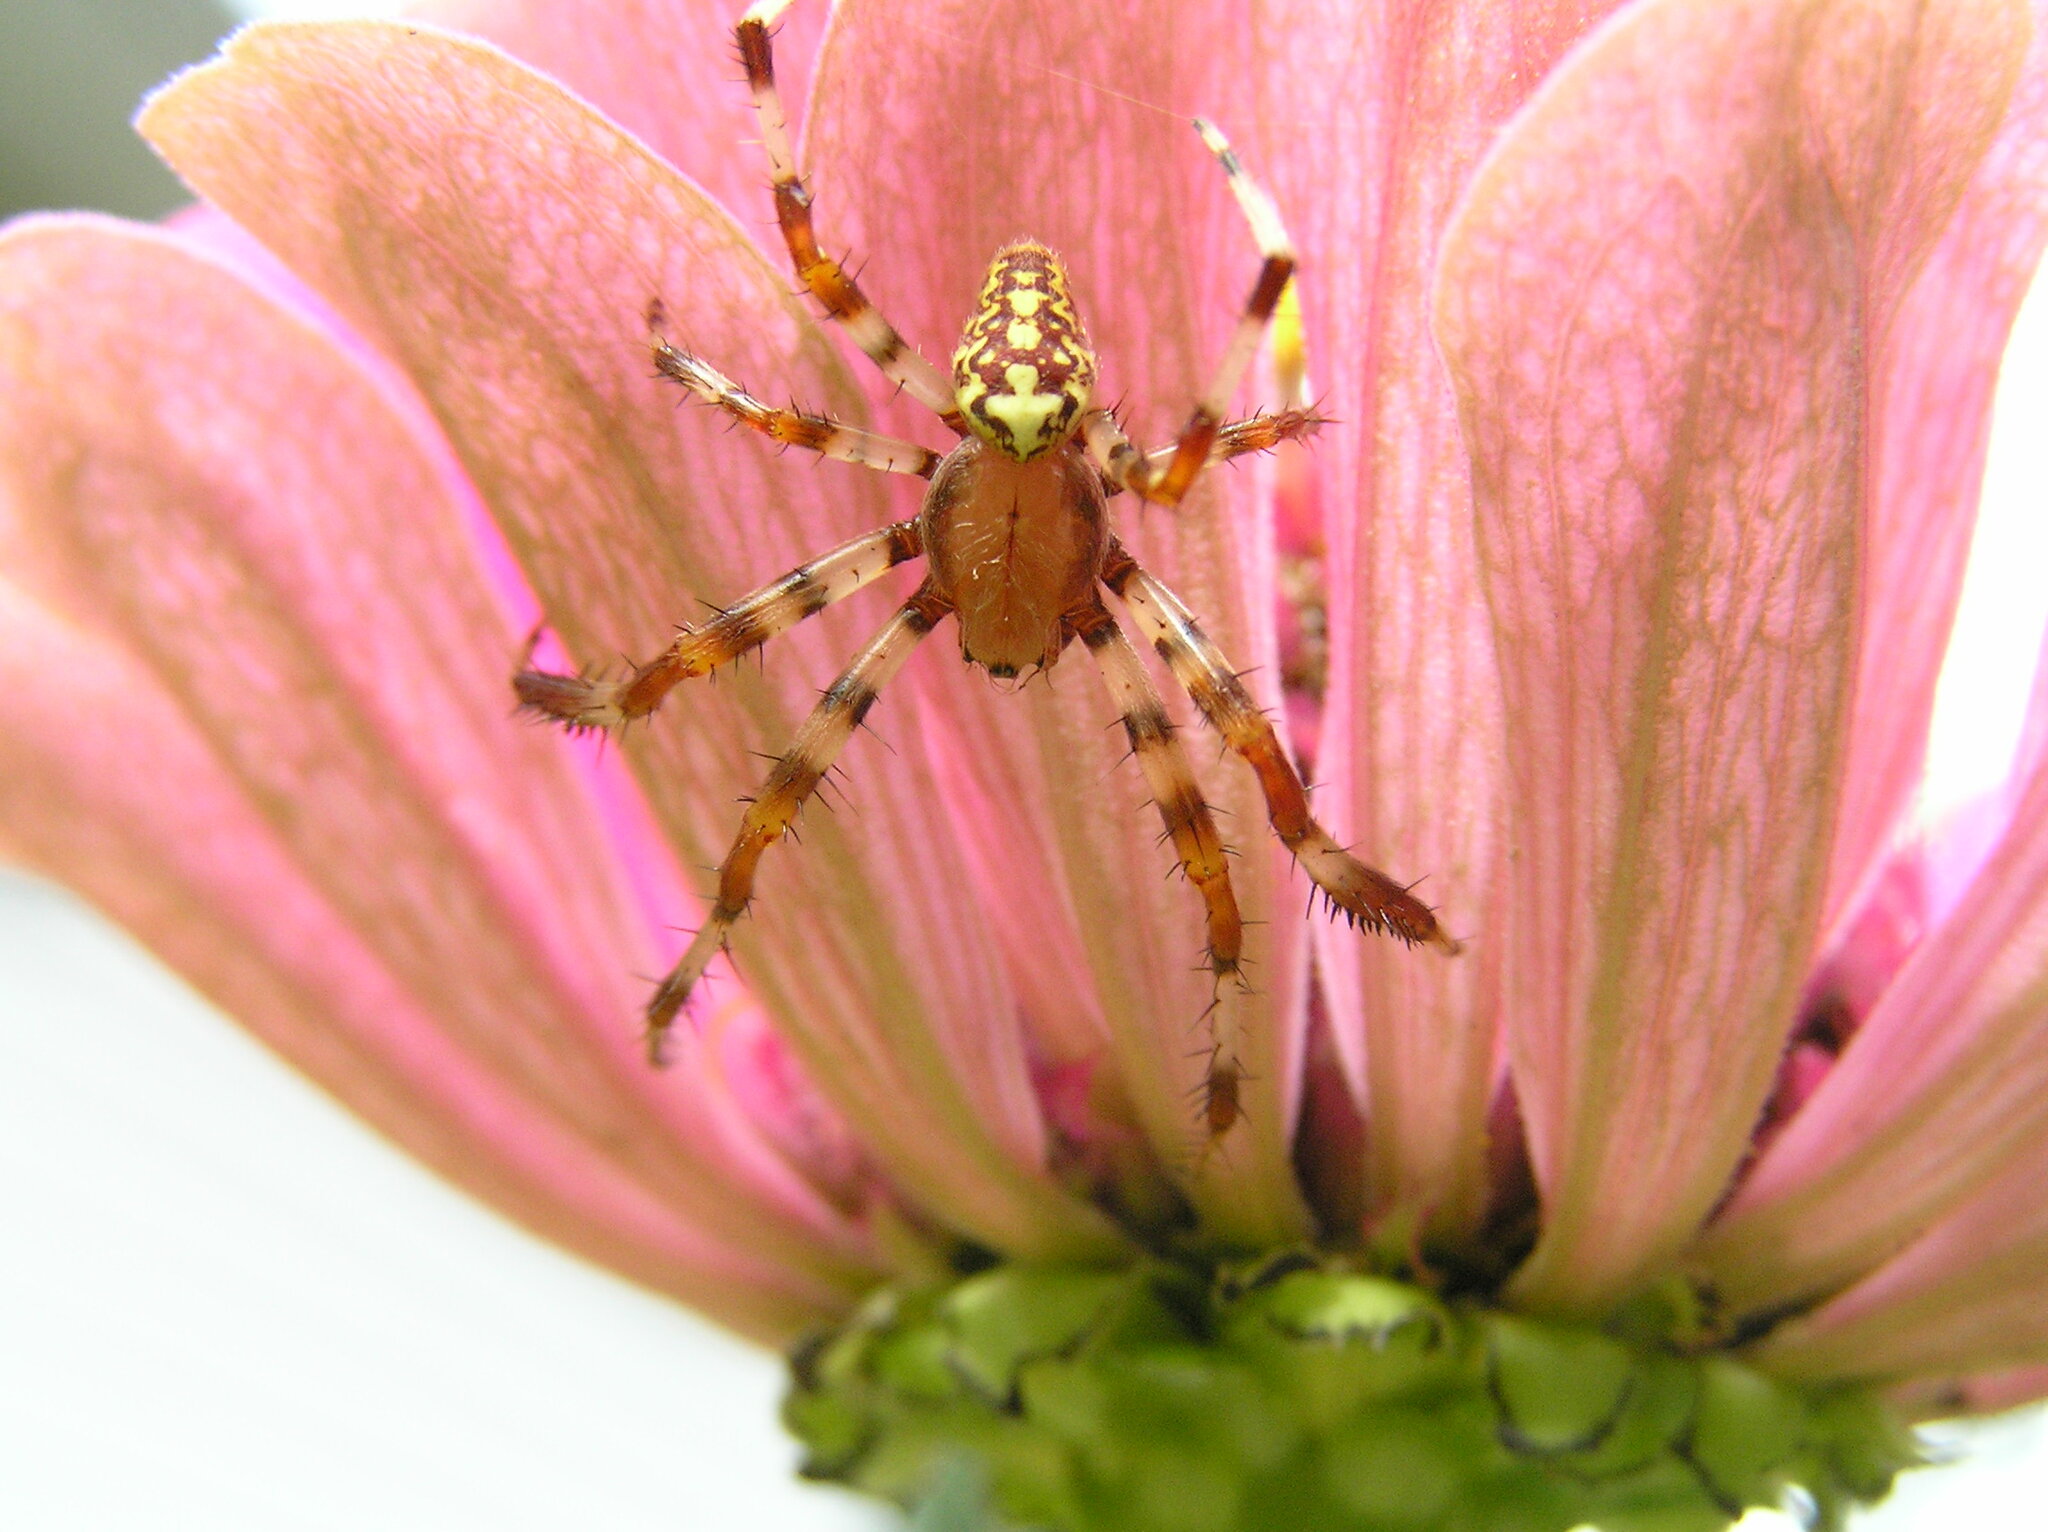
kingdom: Animalia
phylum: Arthropoda
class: Arachnida
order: Araneae
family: Araneidae
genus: Araneus
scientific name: Araneus marmoreus
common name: Marbled orbweaver
